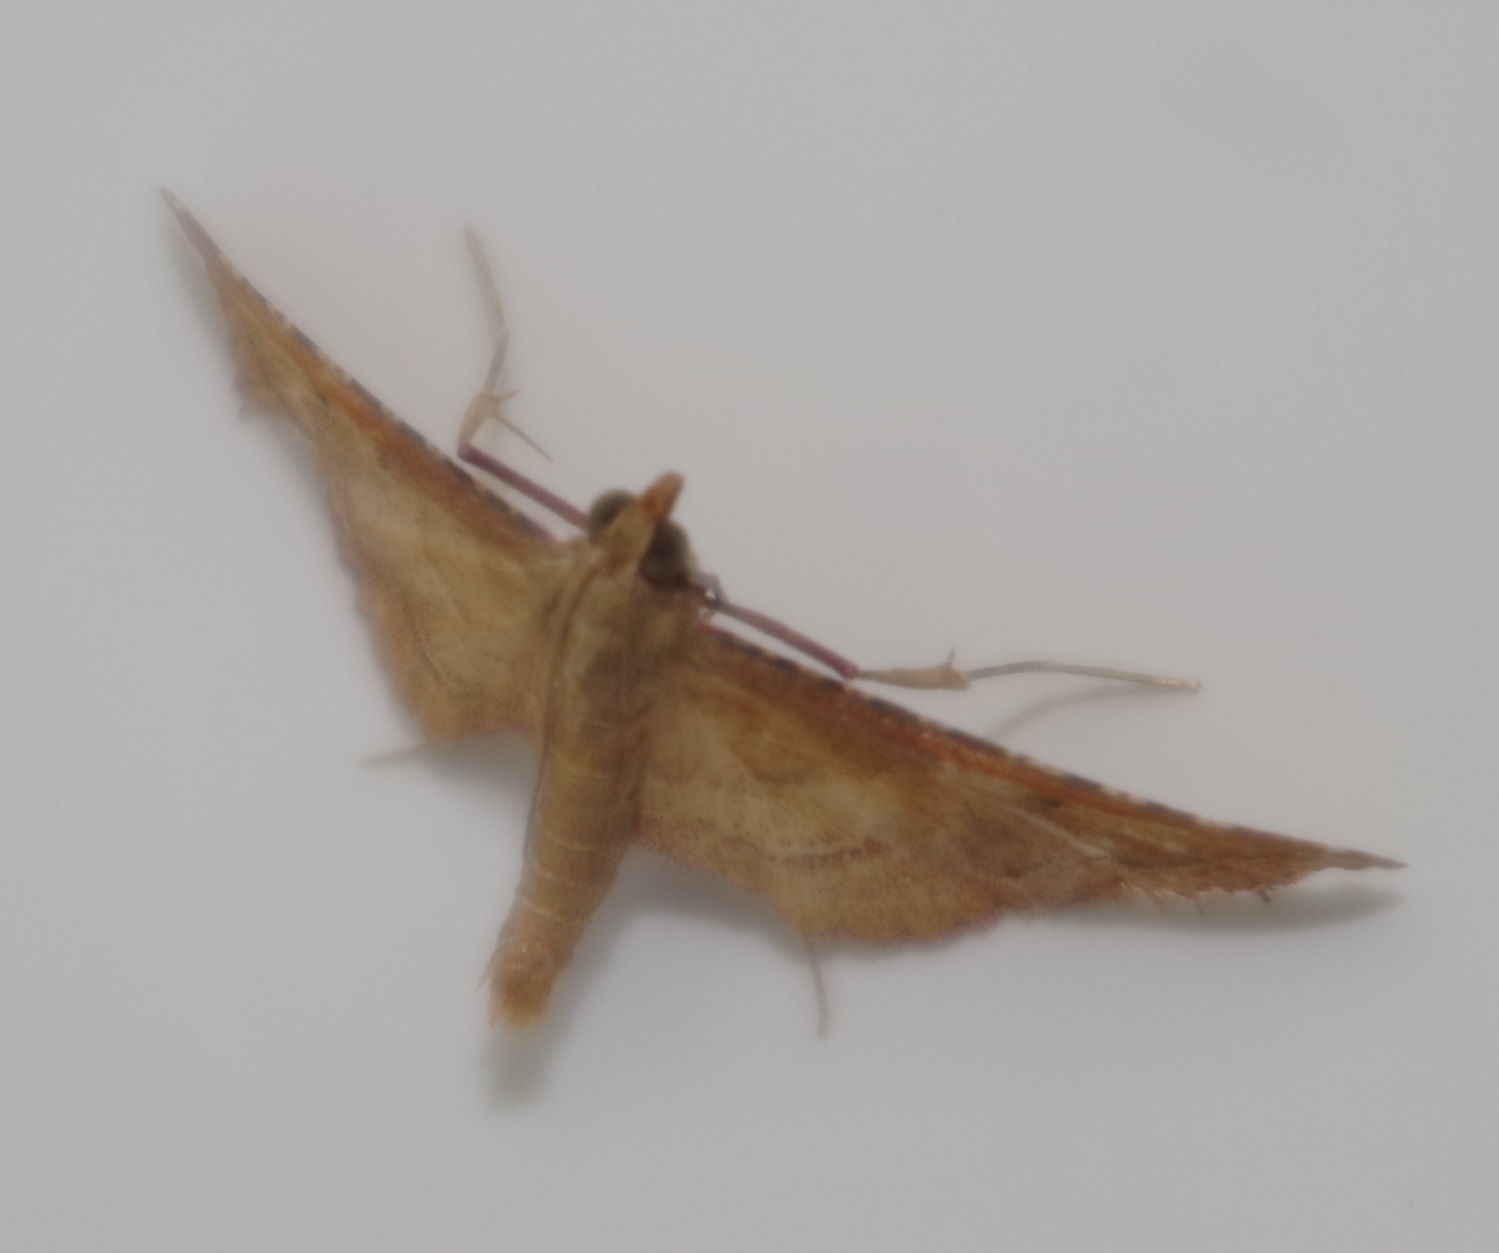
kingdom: Animalia
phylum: Arthropoda
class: Insecta
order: Lepidoptera
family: Pyralidae
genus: Endotricha
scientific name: Endotricha flammealis
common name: Rosy tabby
